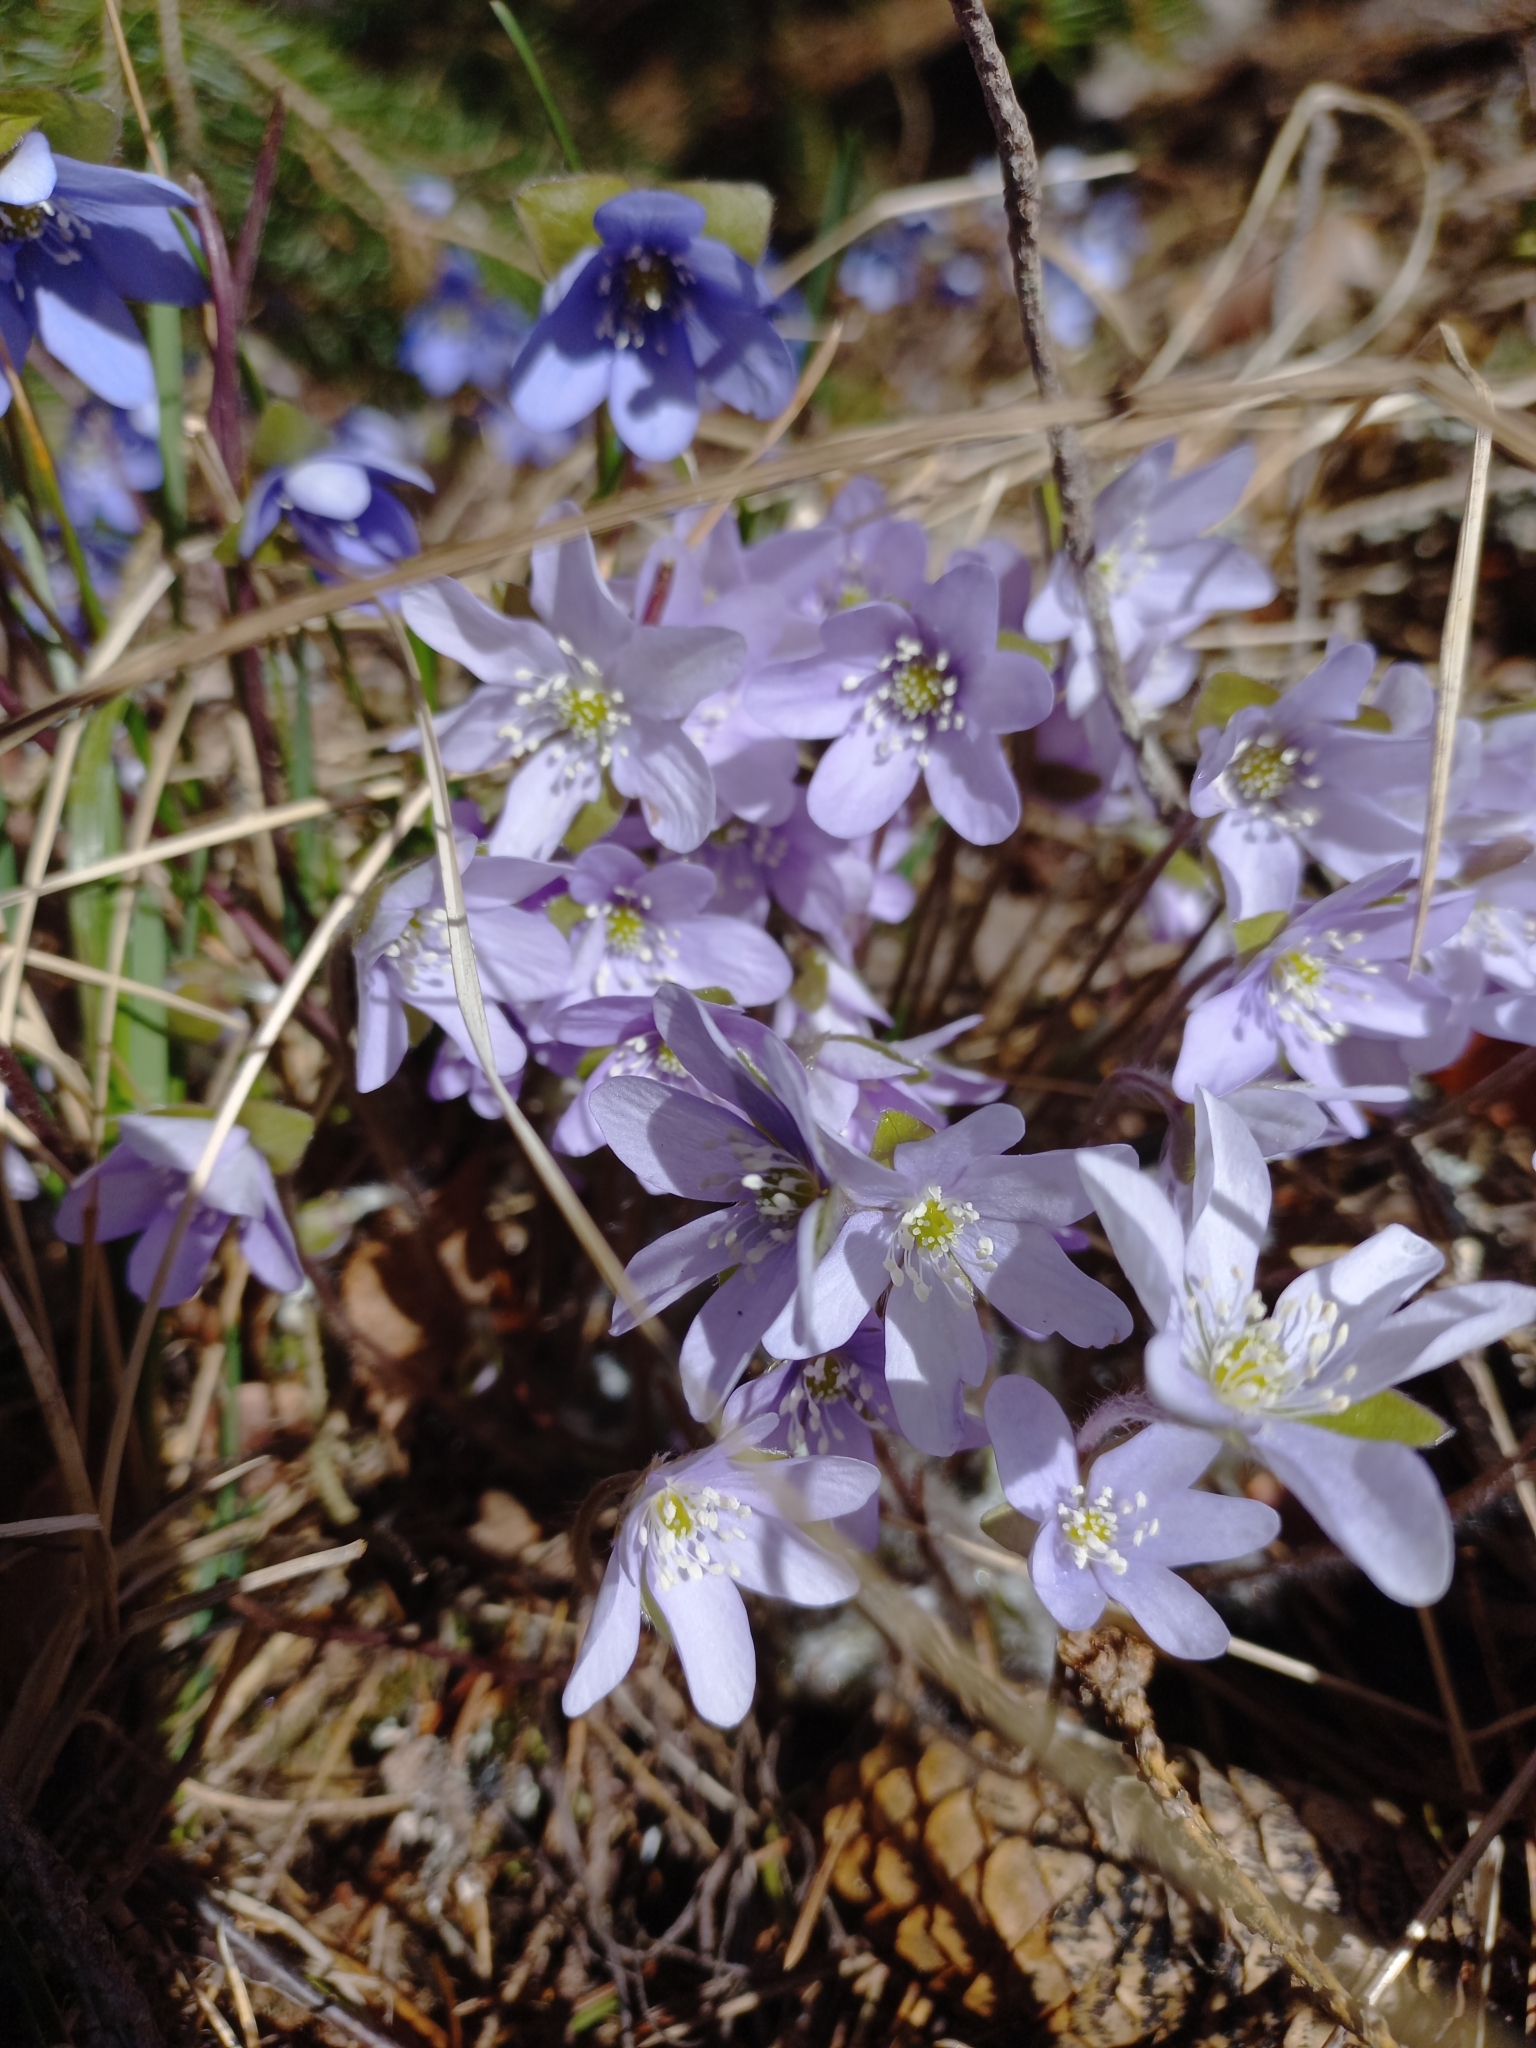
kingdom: Plantae
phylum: Tracheophyta
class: Magnoliopsida
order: Ranunculales
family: Ranunculaceae
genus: Hepatica
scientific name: Hepatica nobilis
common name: Liverleaf
